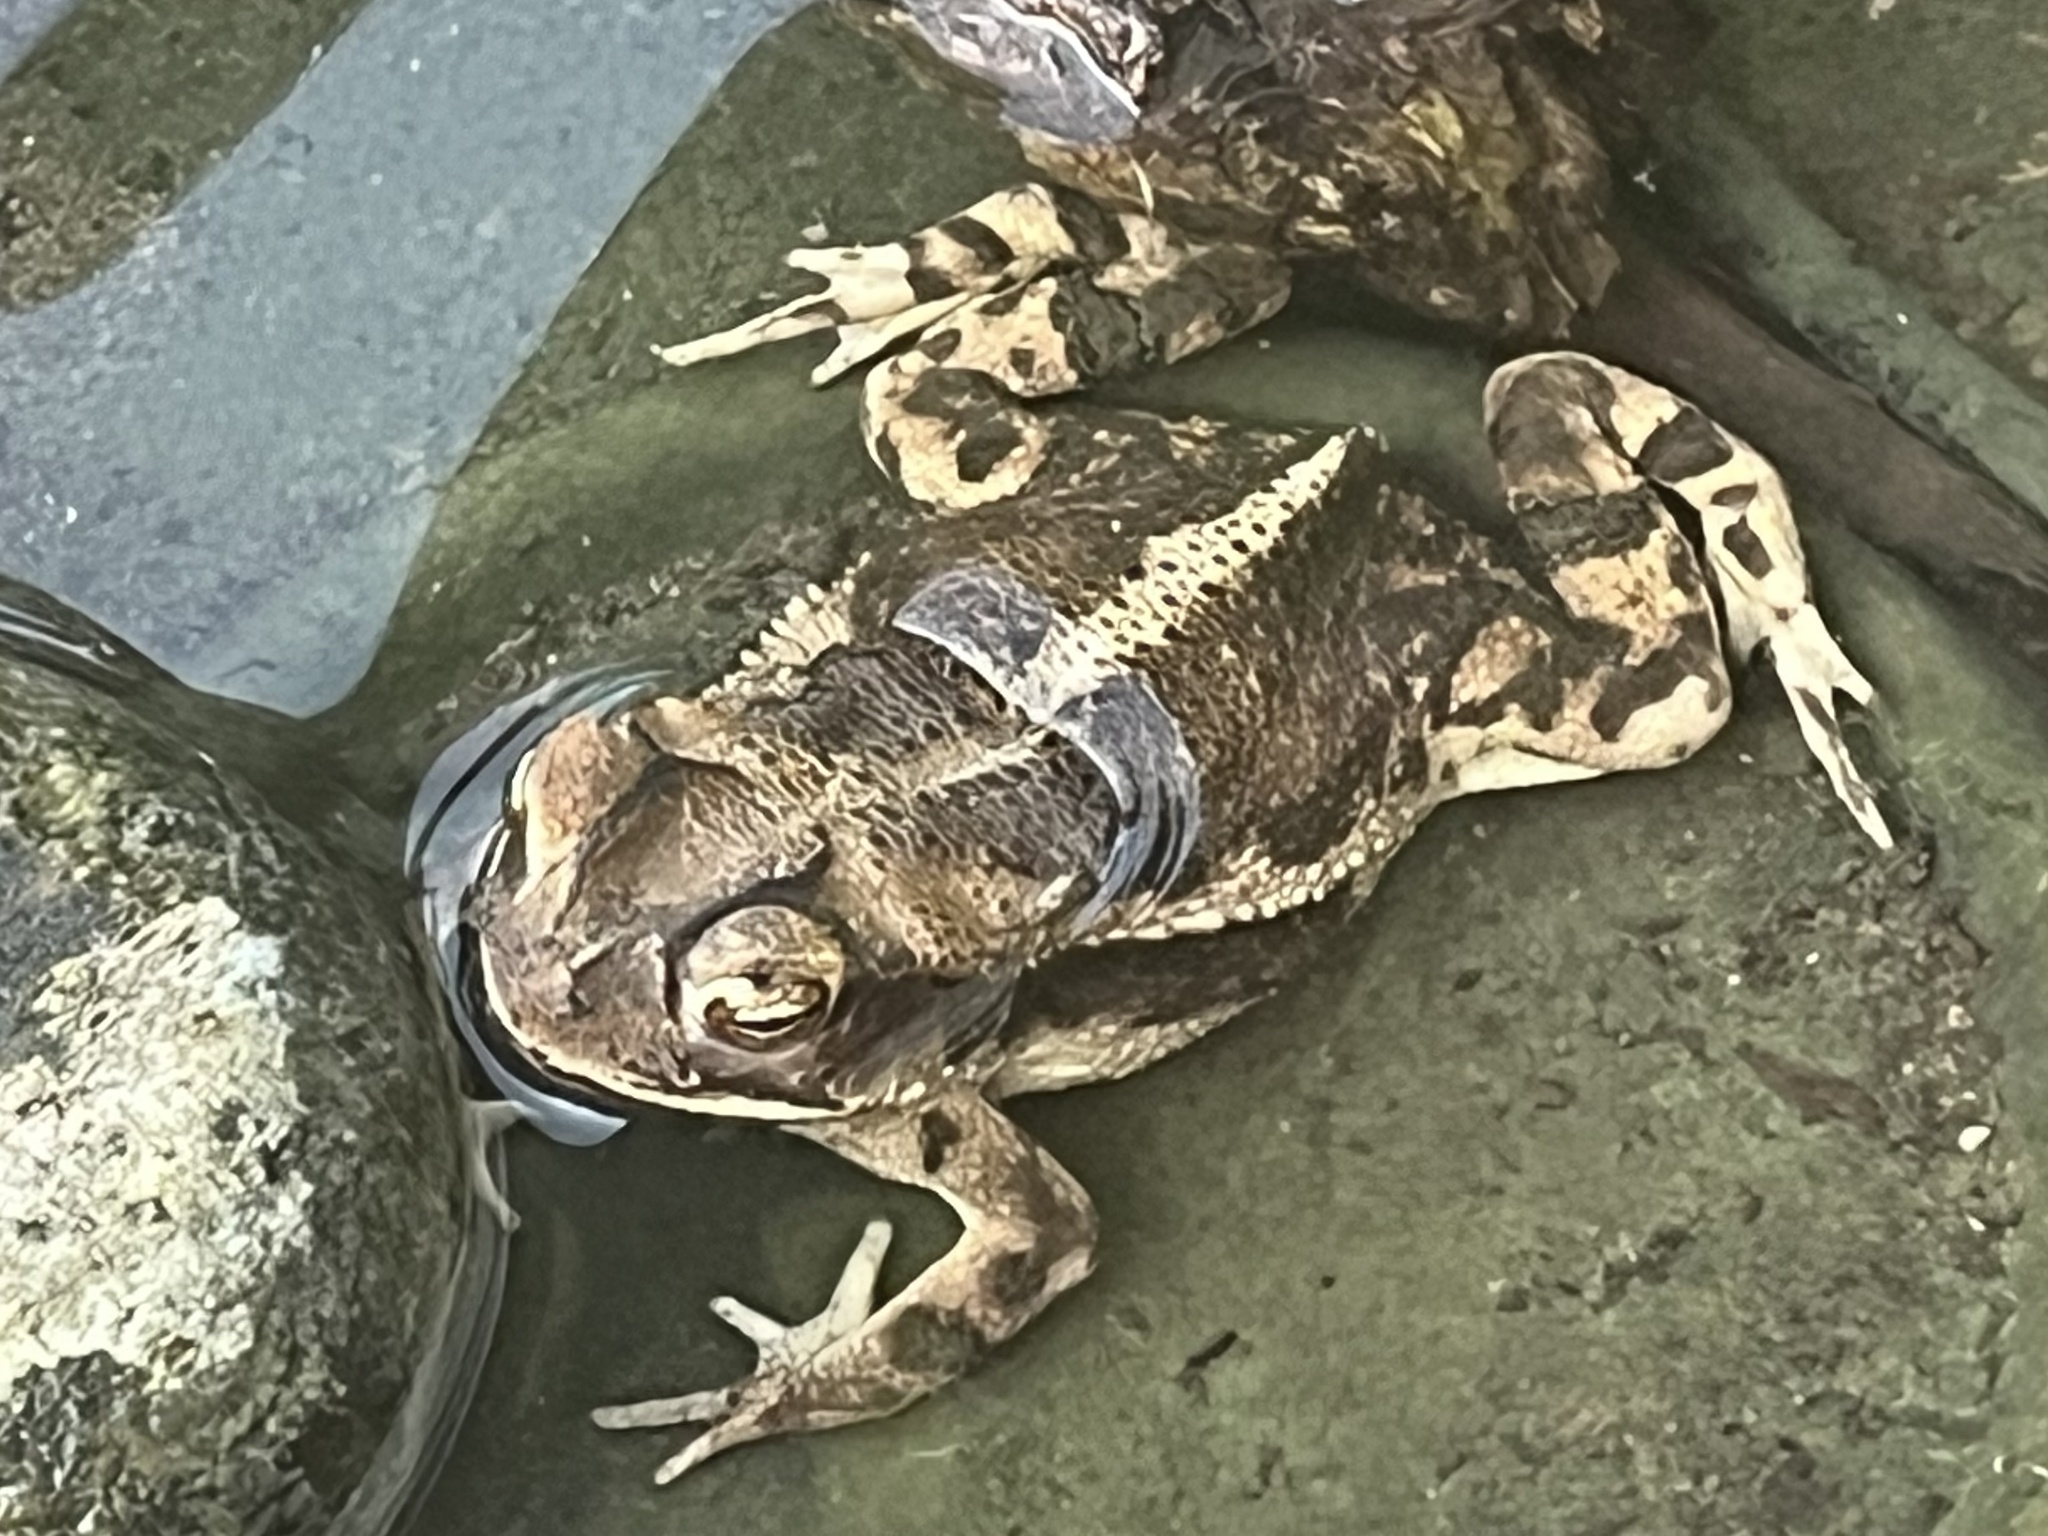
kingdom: Animalia
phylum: Chordata
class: Amphibia
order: Anura
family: Bufonidae
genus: Incilius
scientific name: Incilius nebulifer
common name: Gulf coast toad
